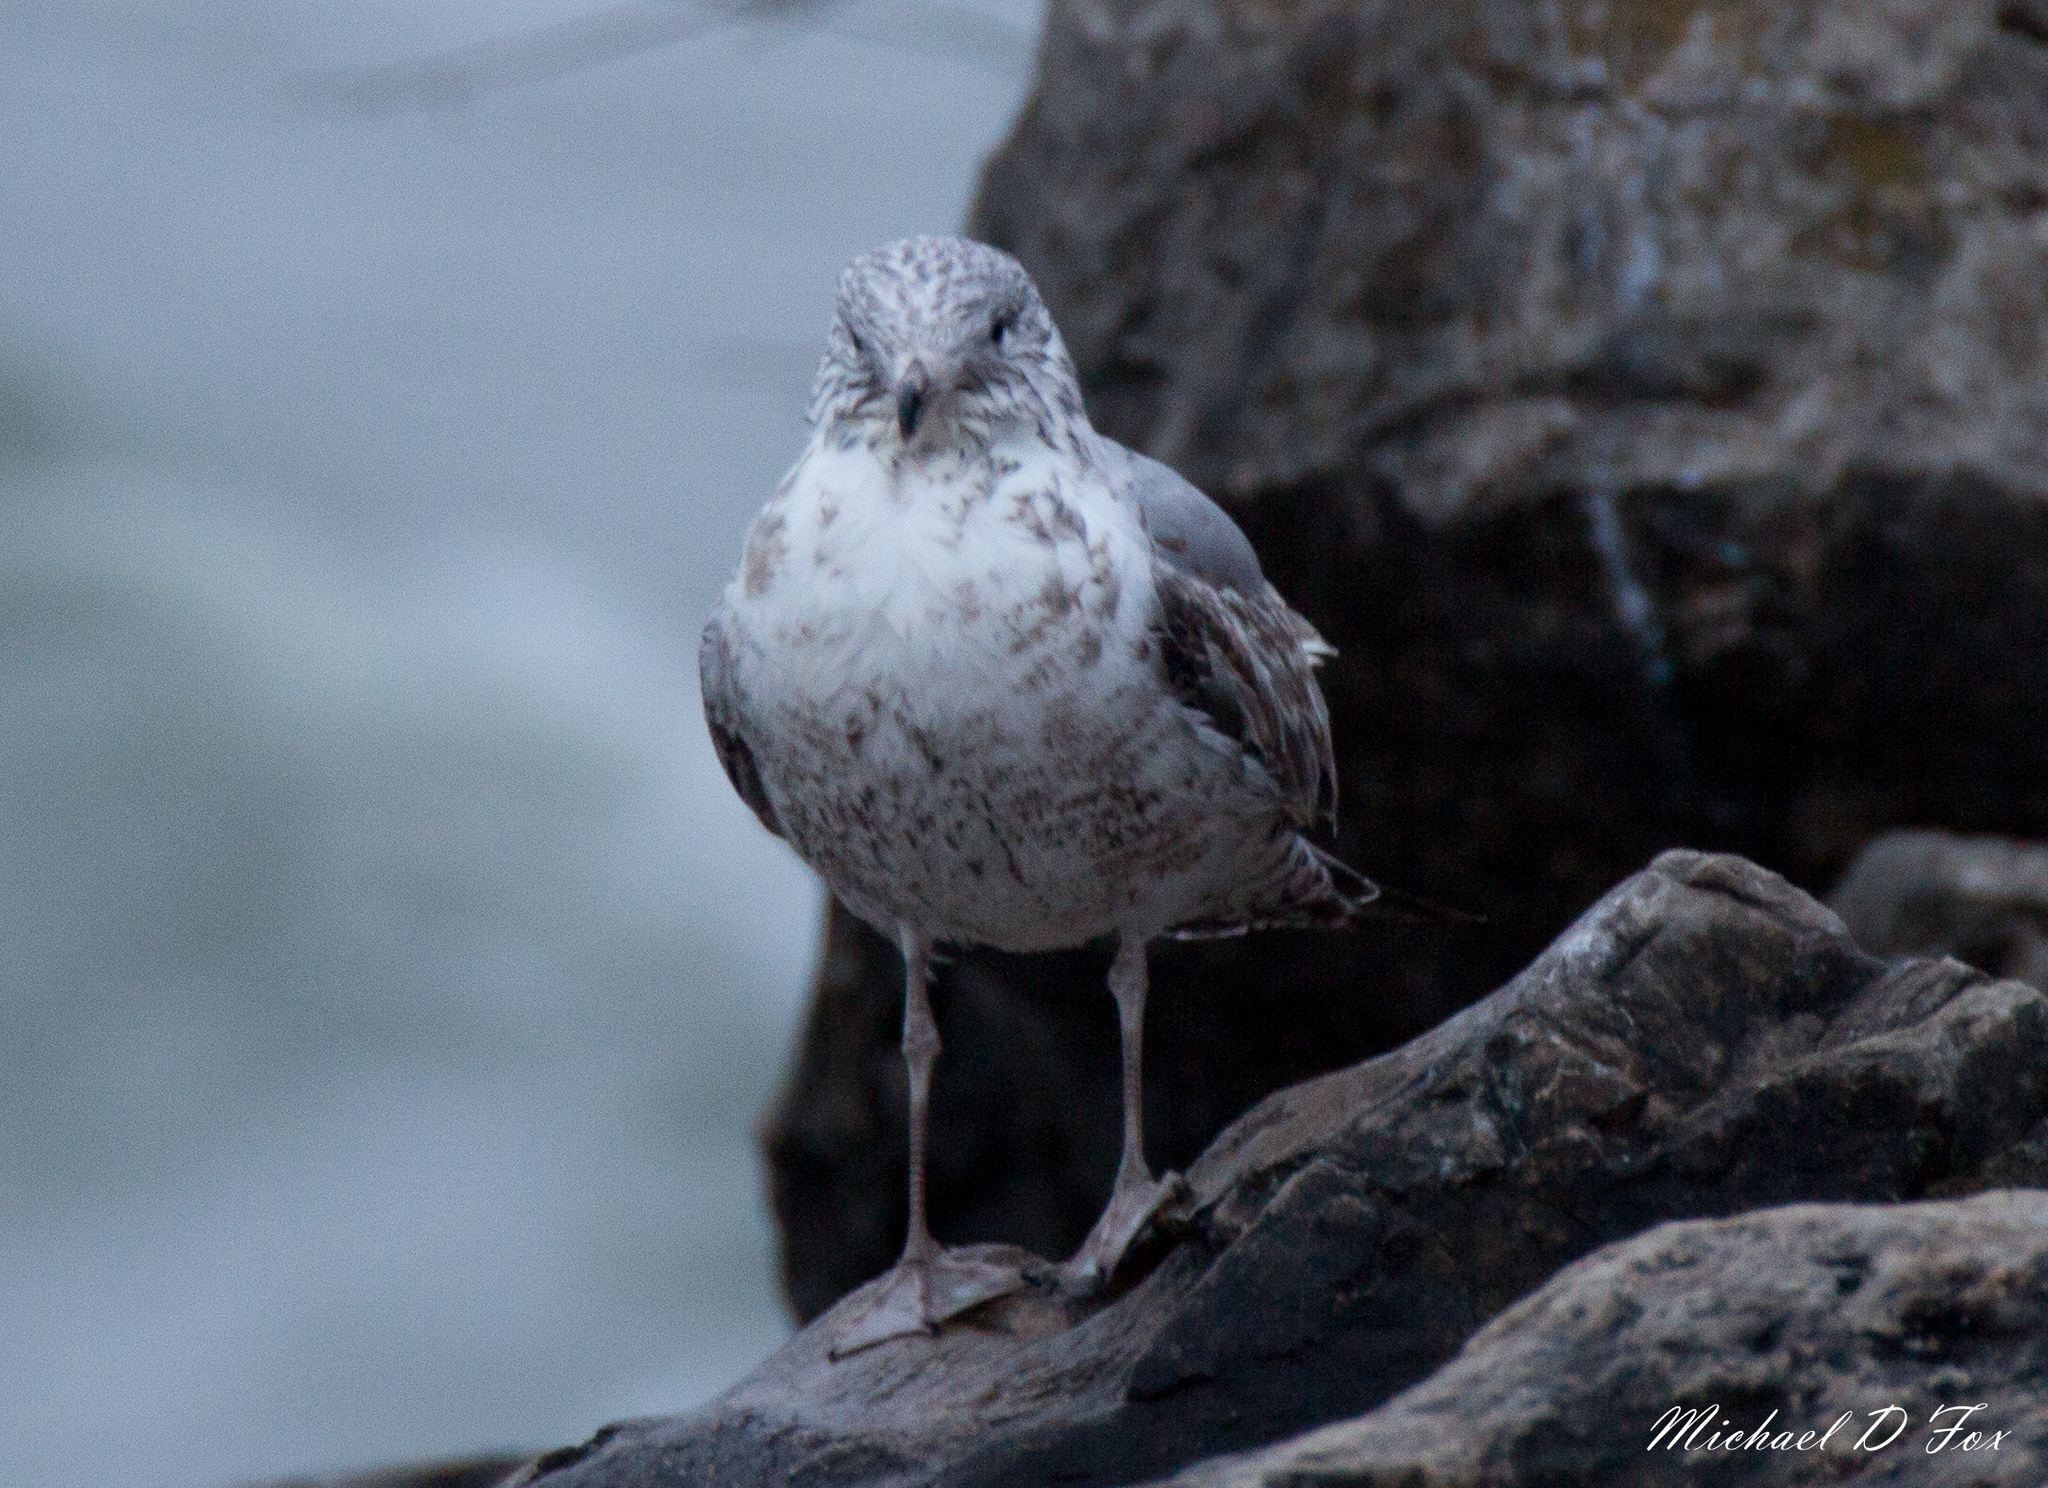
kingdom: Animalia
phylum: Chordata
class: Aves
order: Charadriiformes
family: Laridae
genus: Larus
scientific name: Larus delawarensis
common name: Ring-billed gull
